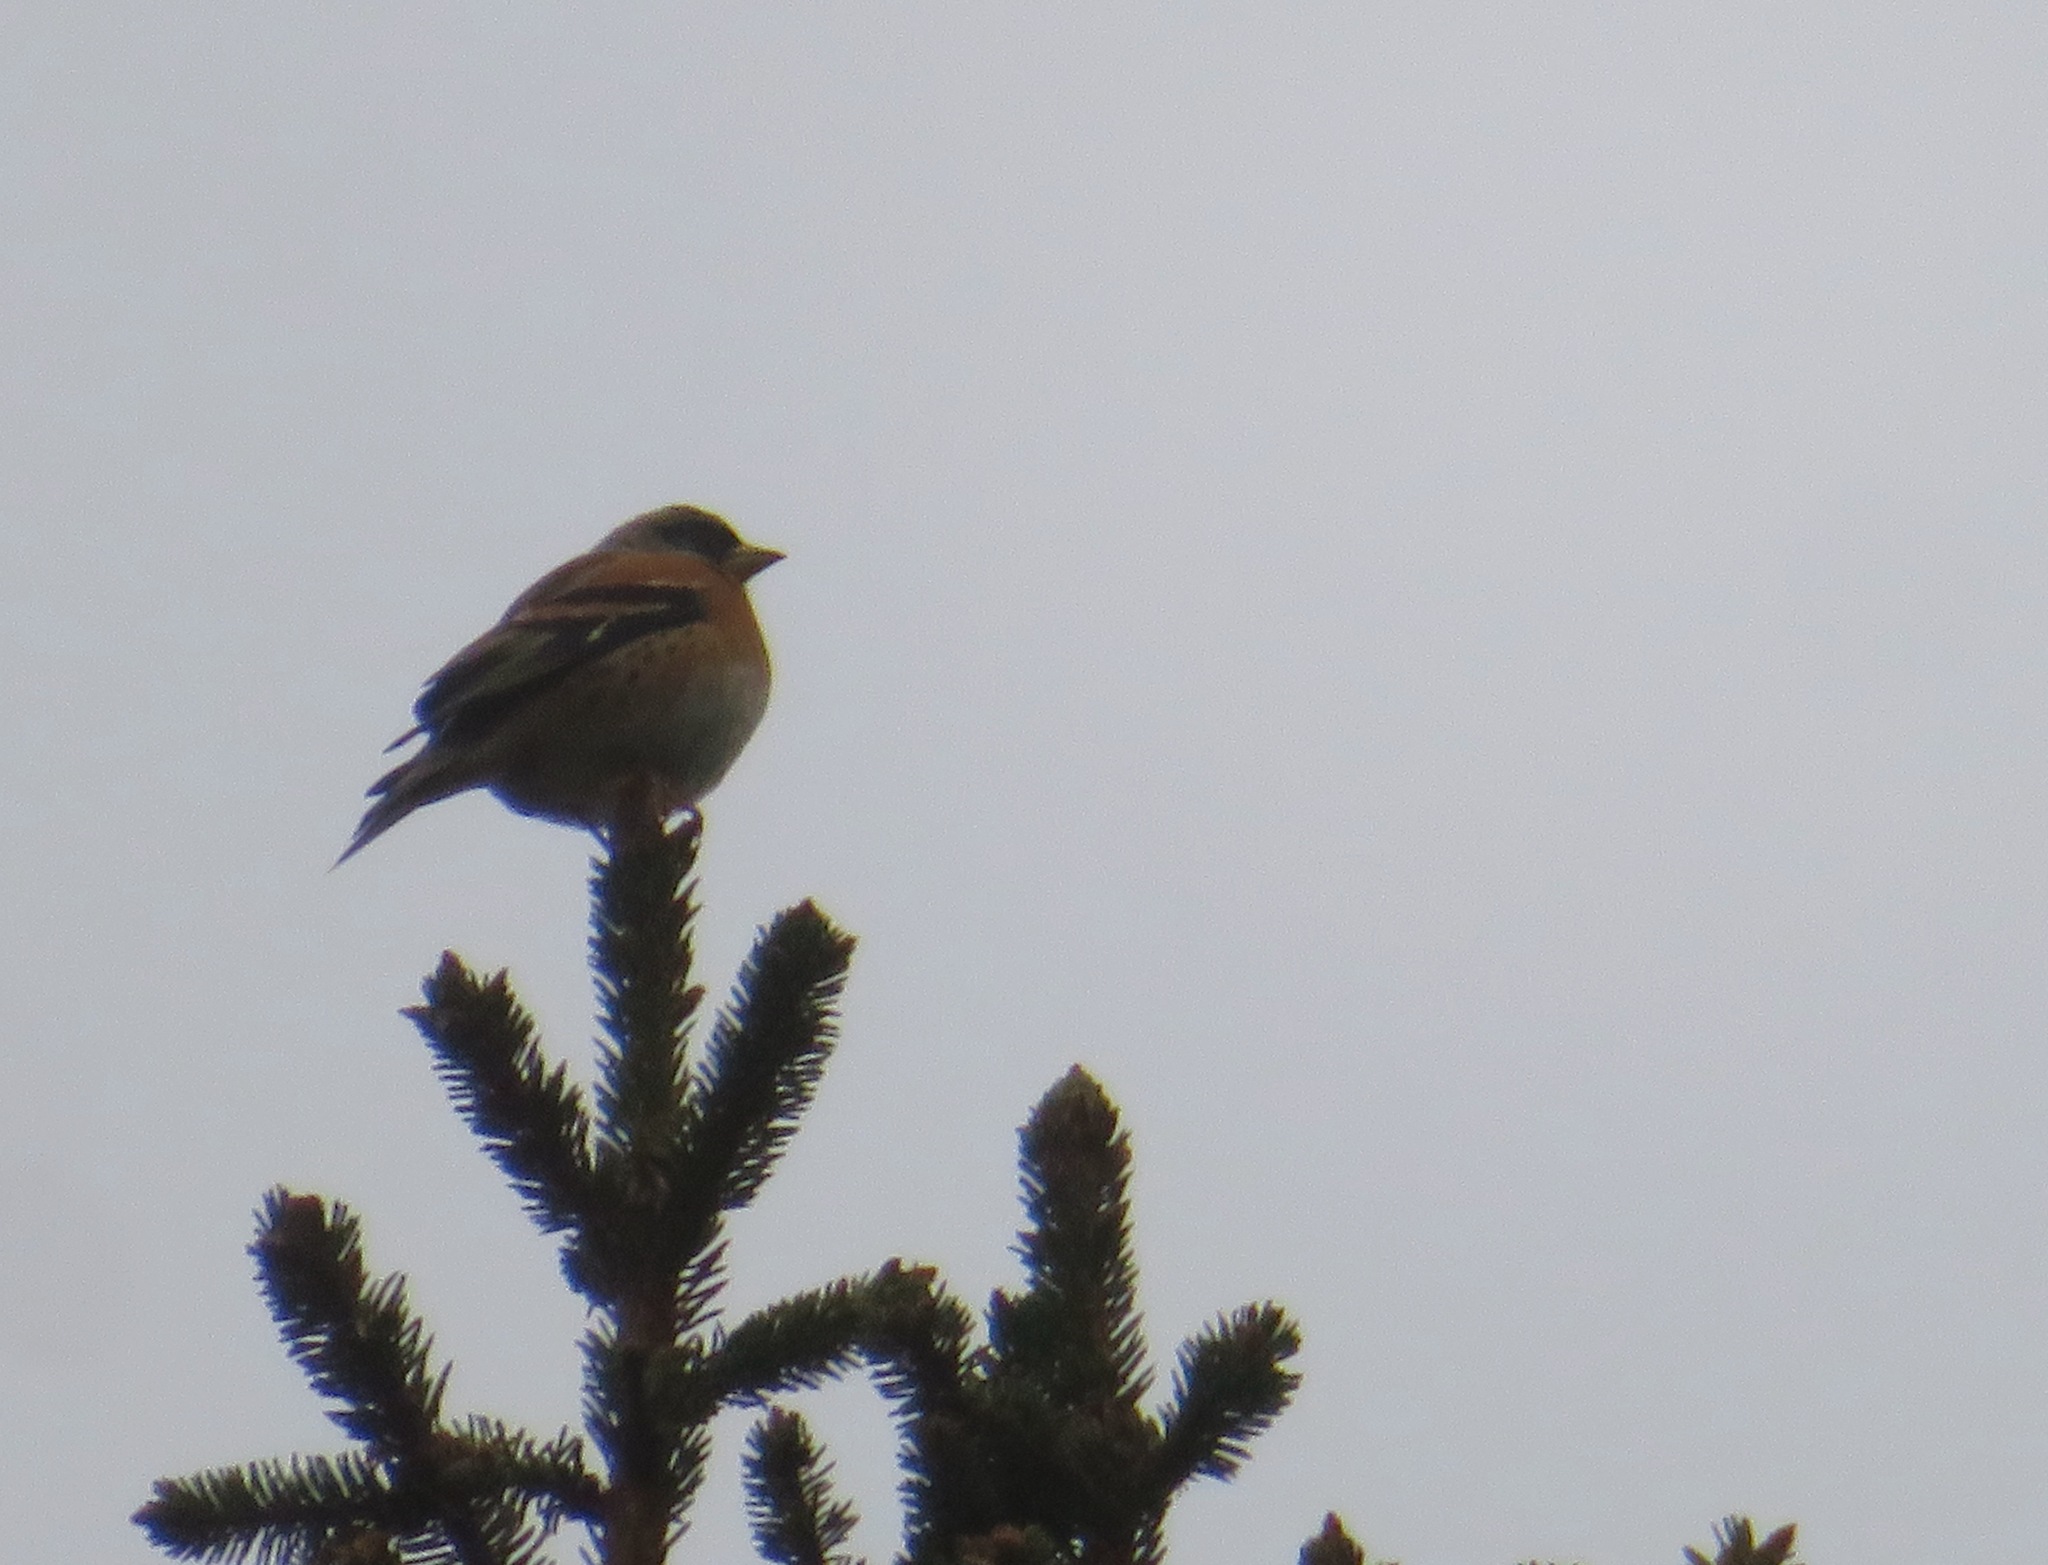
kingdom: Animalia
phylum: Chordata
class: Aves
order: Passeriformes
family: Fringillidae
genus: Fringilla
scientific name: Fringilla montifringilla
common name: Brambling
